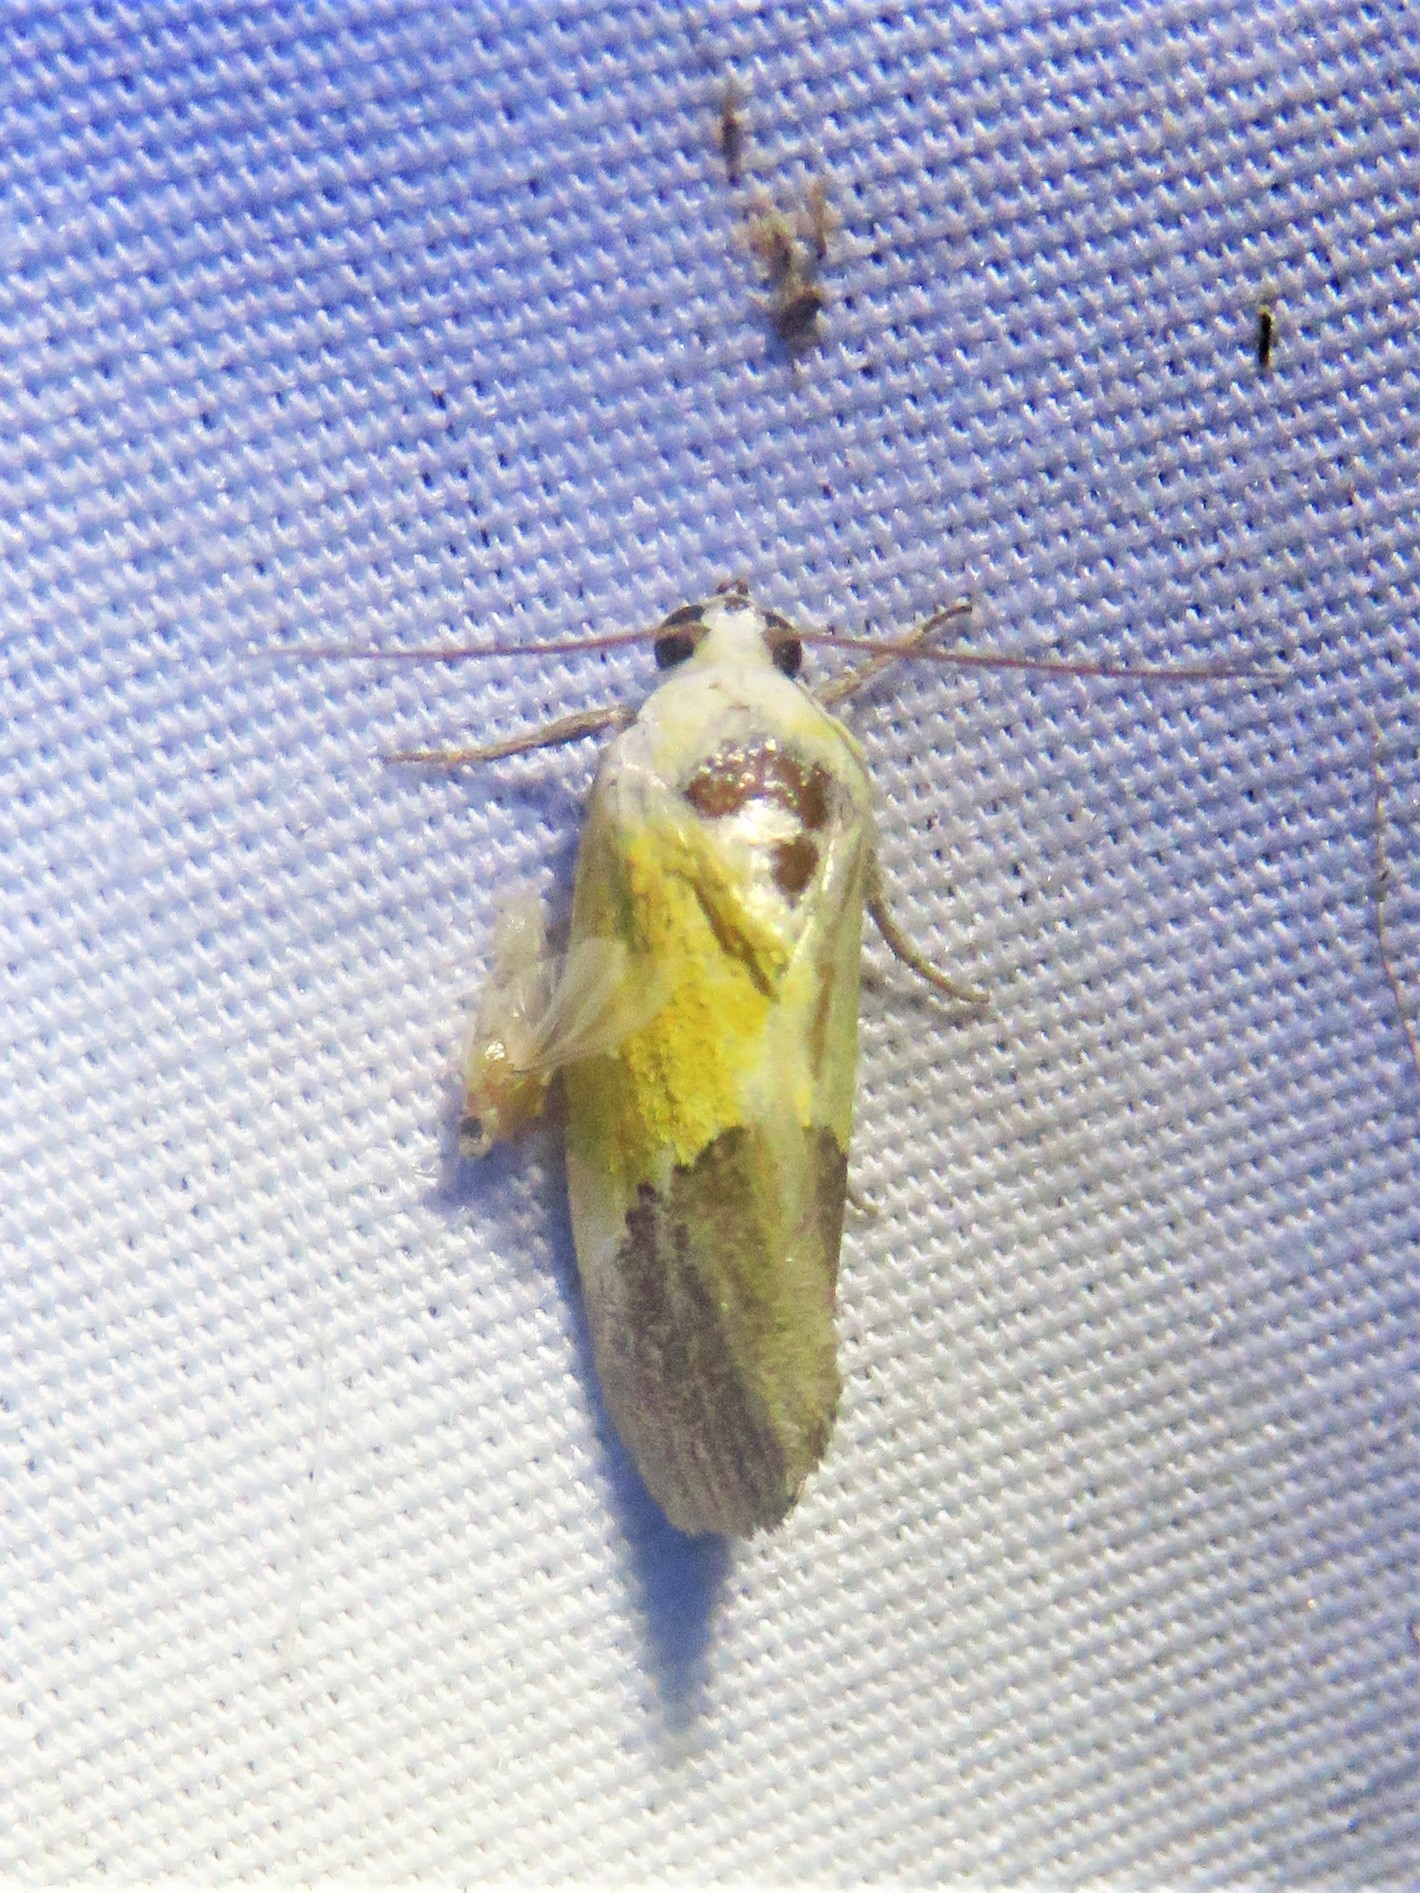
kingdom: Animalia
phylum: Arthropoda
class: Insecta
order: Lepidoptera
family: Noctuidae
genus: Acontia
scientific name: Acontia semiflava
